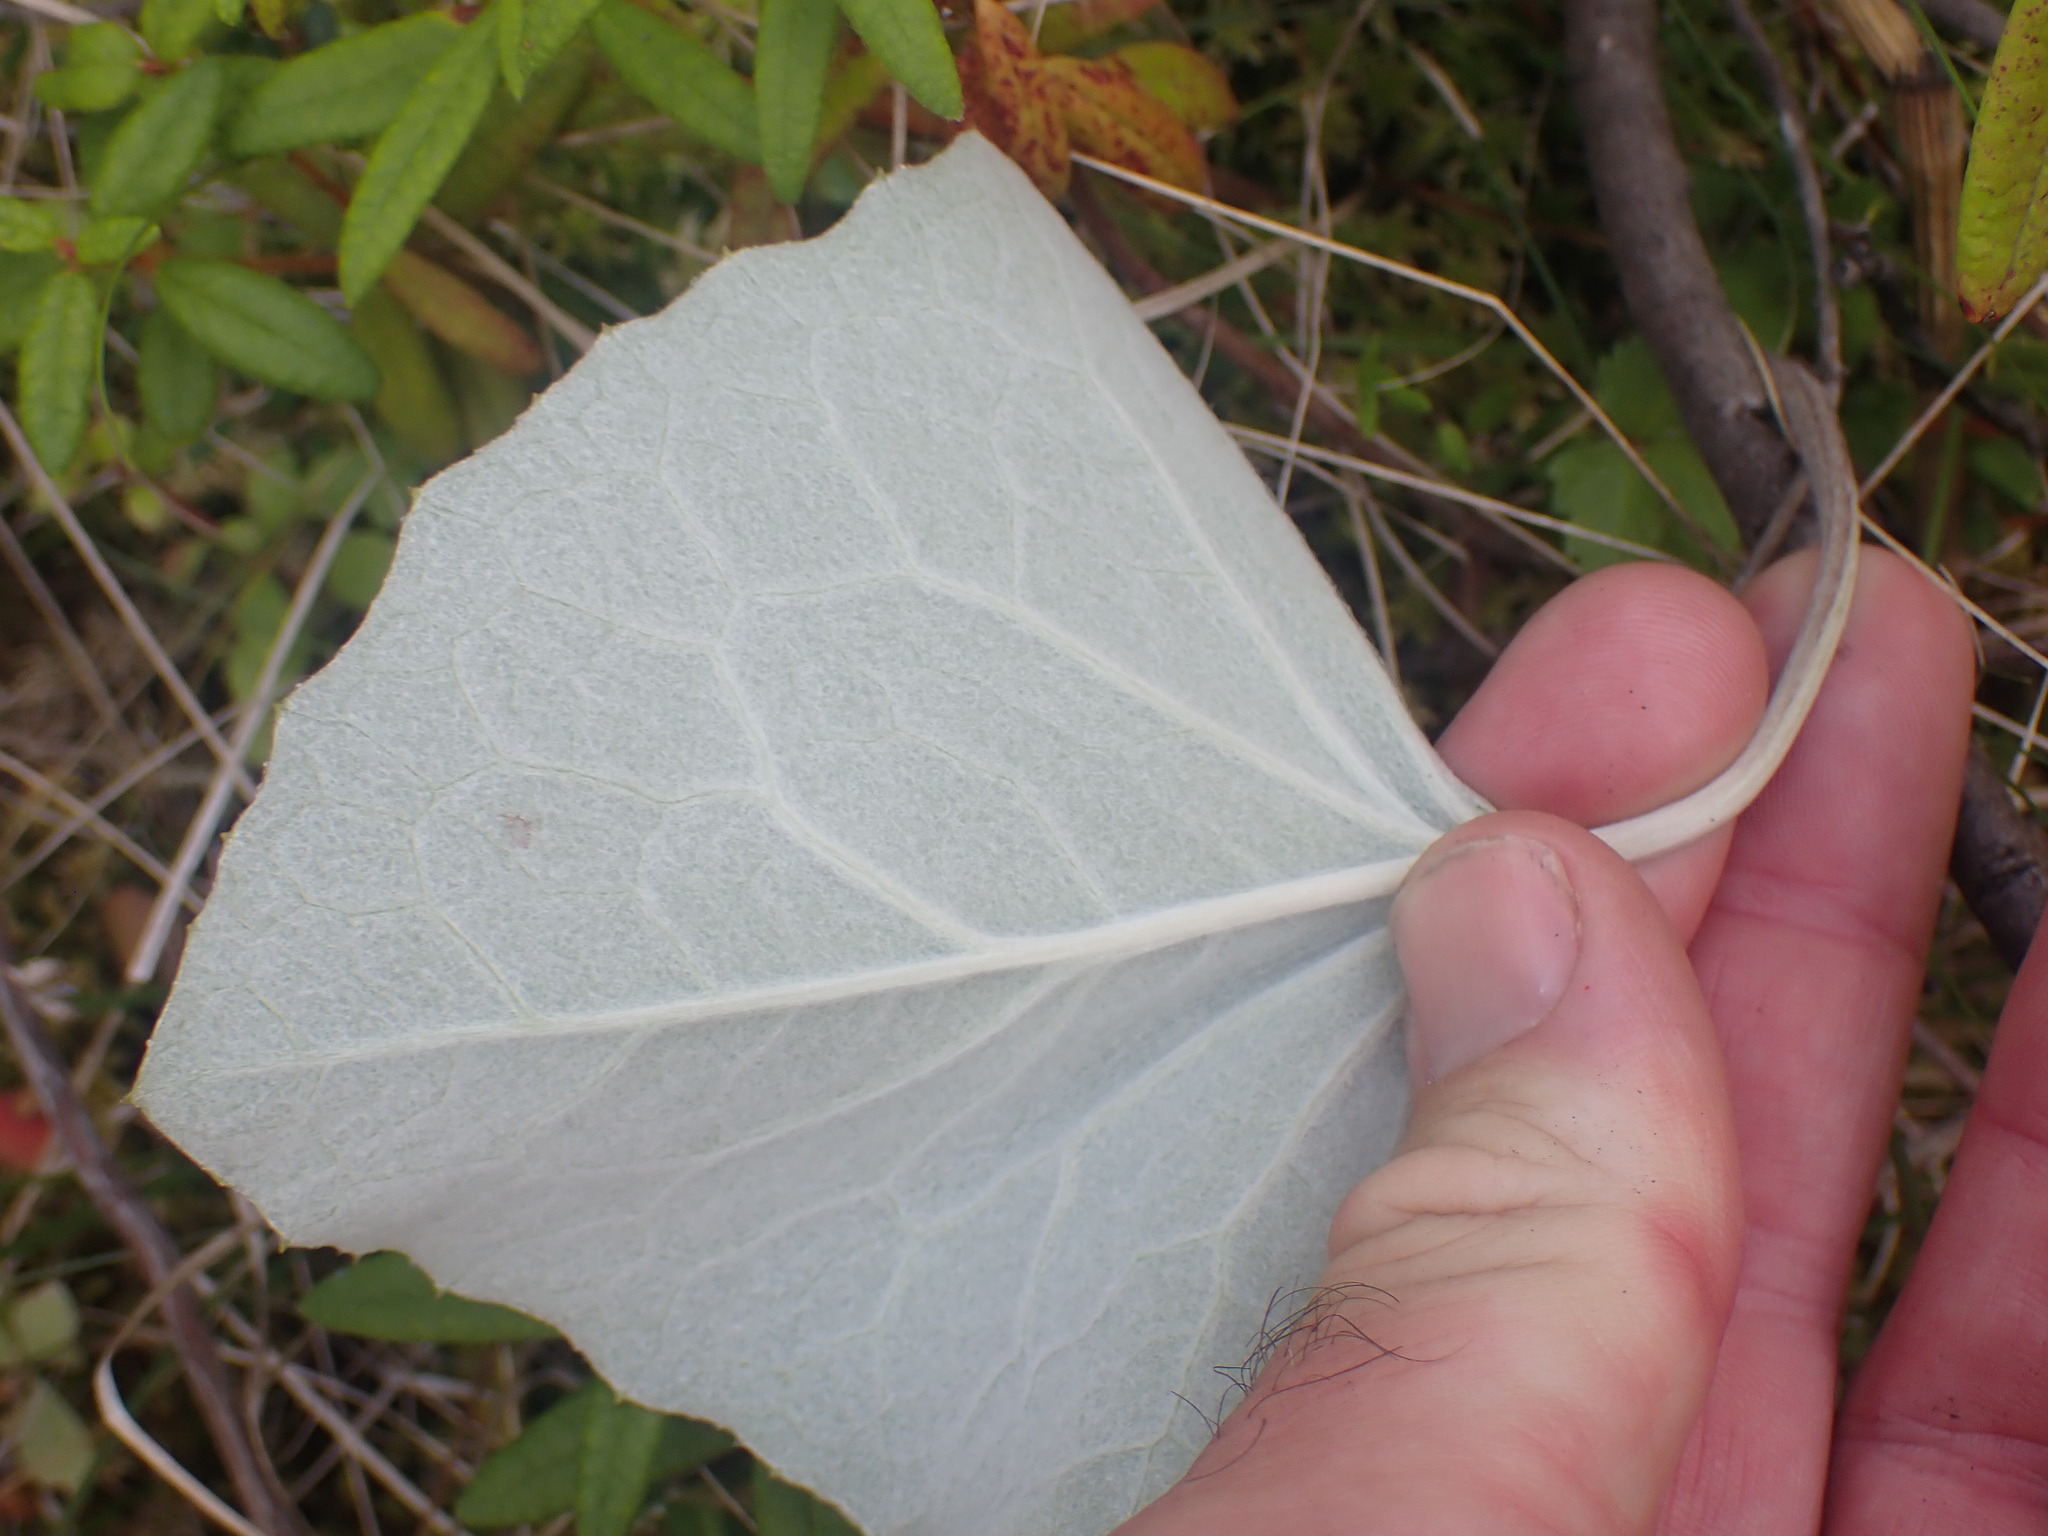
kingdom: Plantae
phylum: Tracheophyta
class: Magnoliopsida
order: Asterales
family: Asteraceae
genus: Petasites
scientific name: Petasites frigidus
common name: Arctic butterbur
